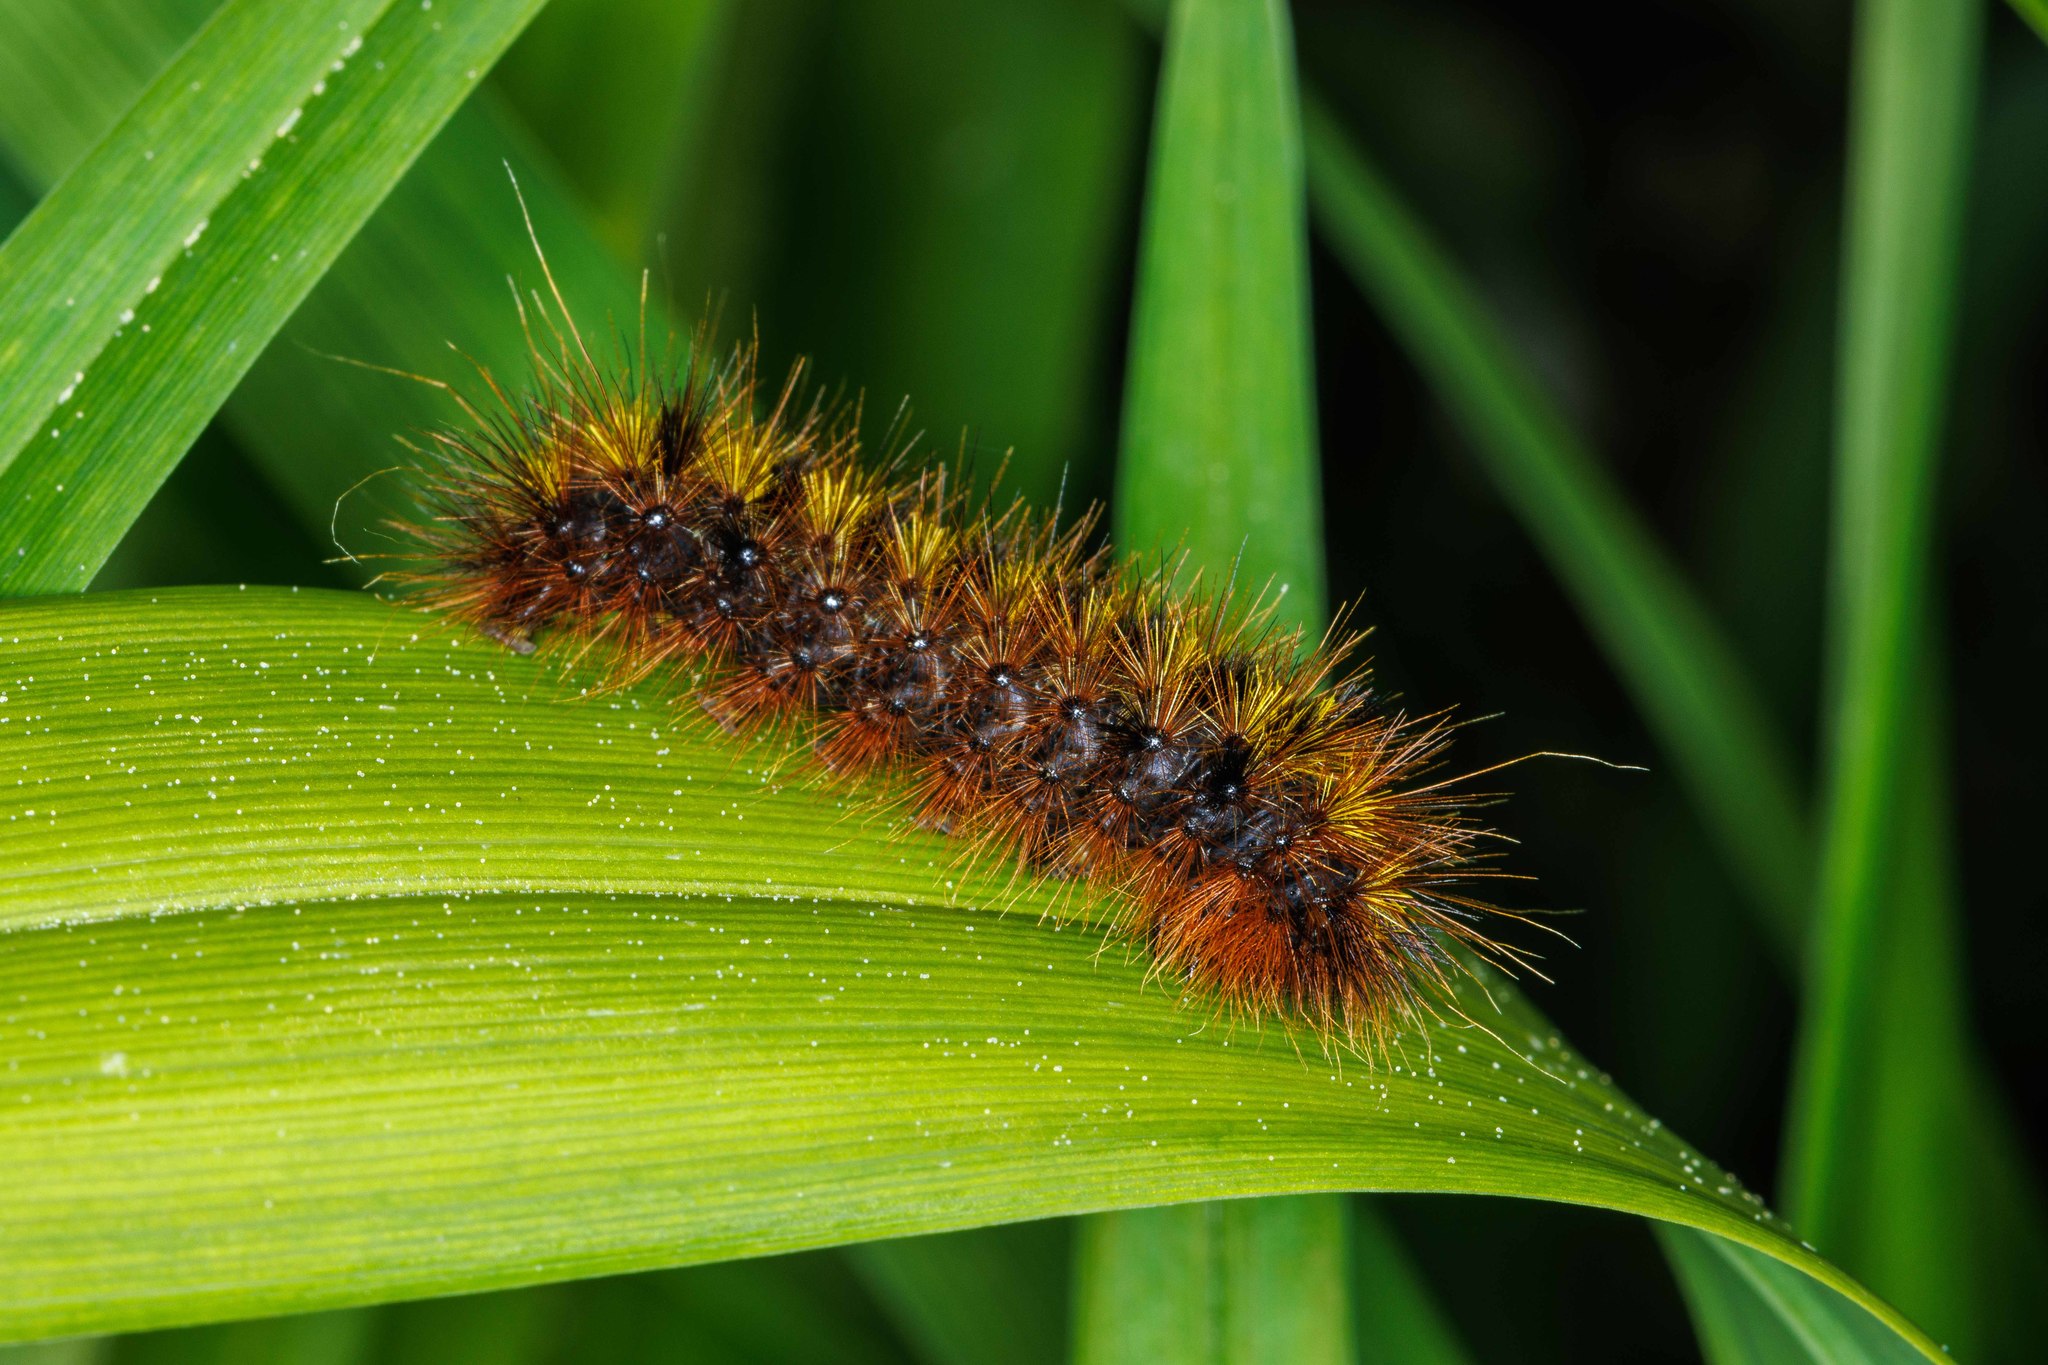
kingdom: Animalia
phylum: Arthropoda
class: Insecta
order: Lepidoptera
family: Erebidae
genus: Lophocampa
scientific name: Lophocampa argentata
